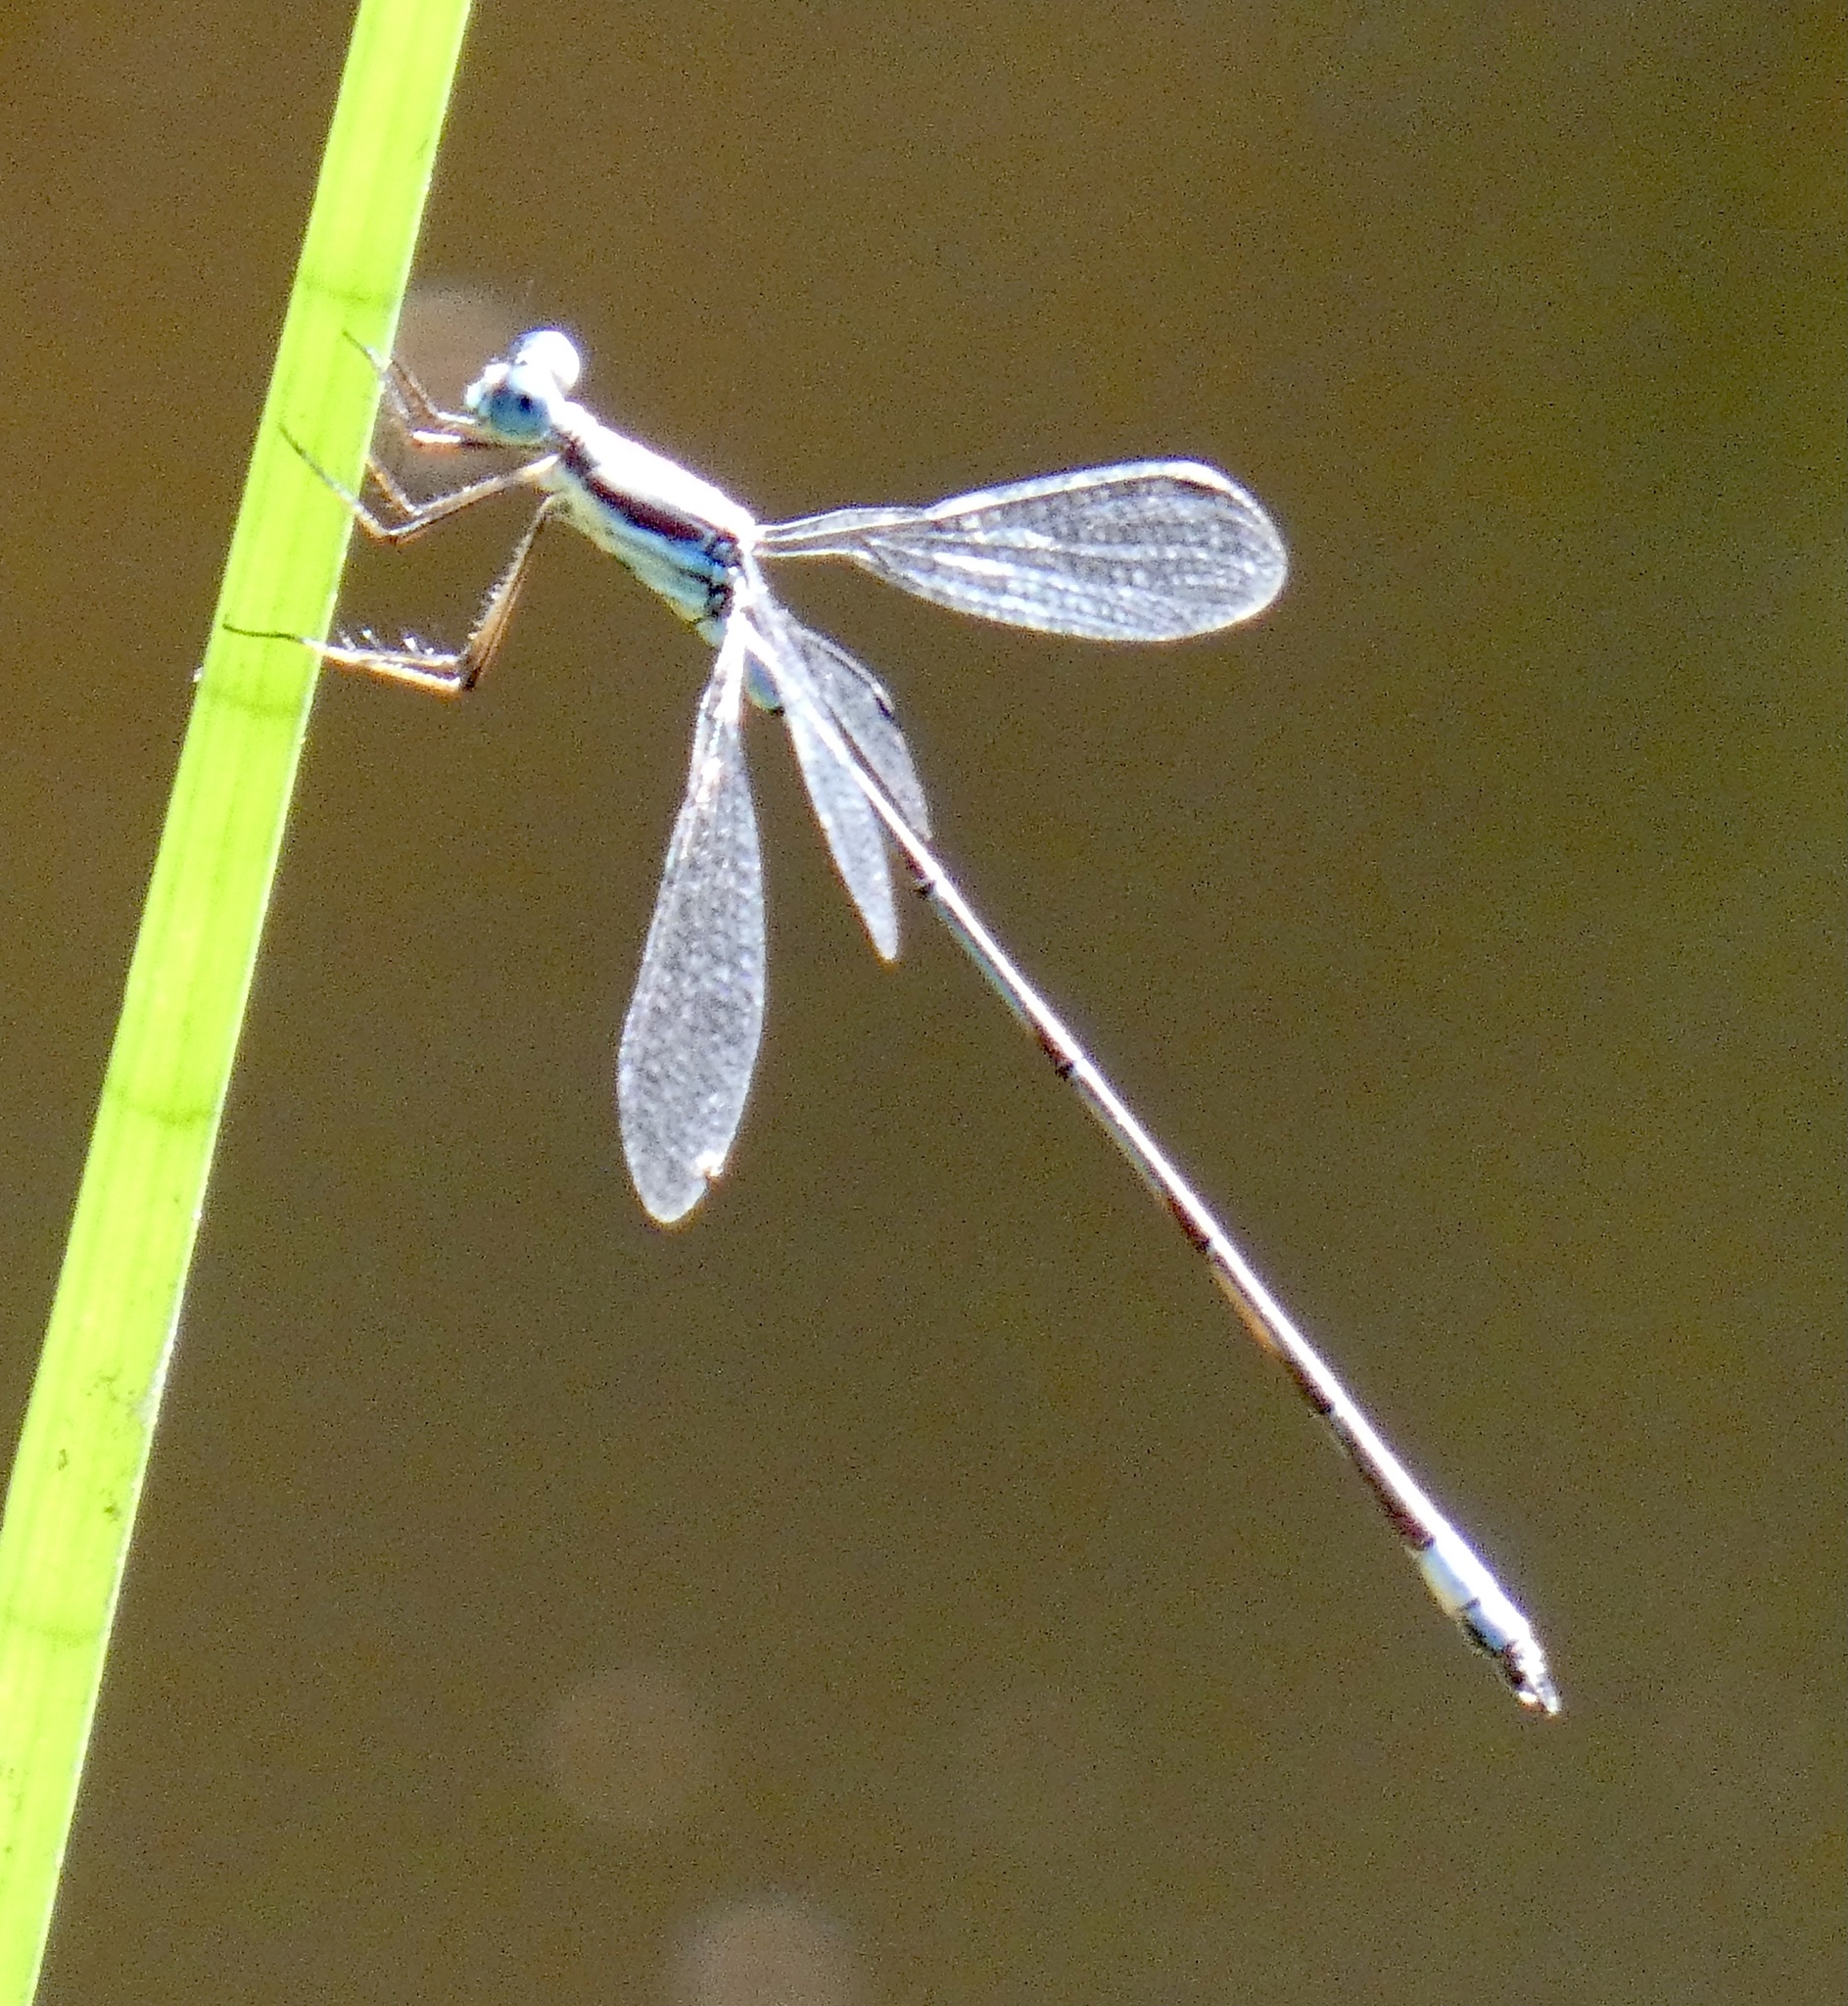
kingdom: Animalia
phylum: Arthropoda
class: Insecta
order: Odonata
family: Lestidae
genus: Lestes
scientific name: Lestes pictus
